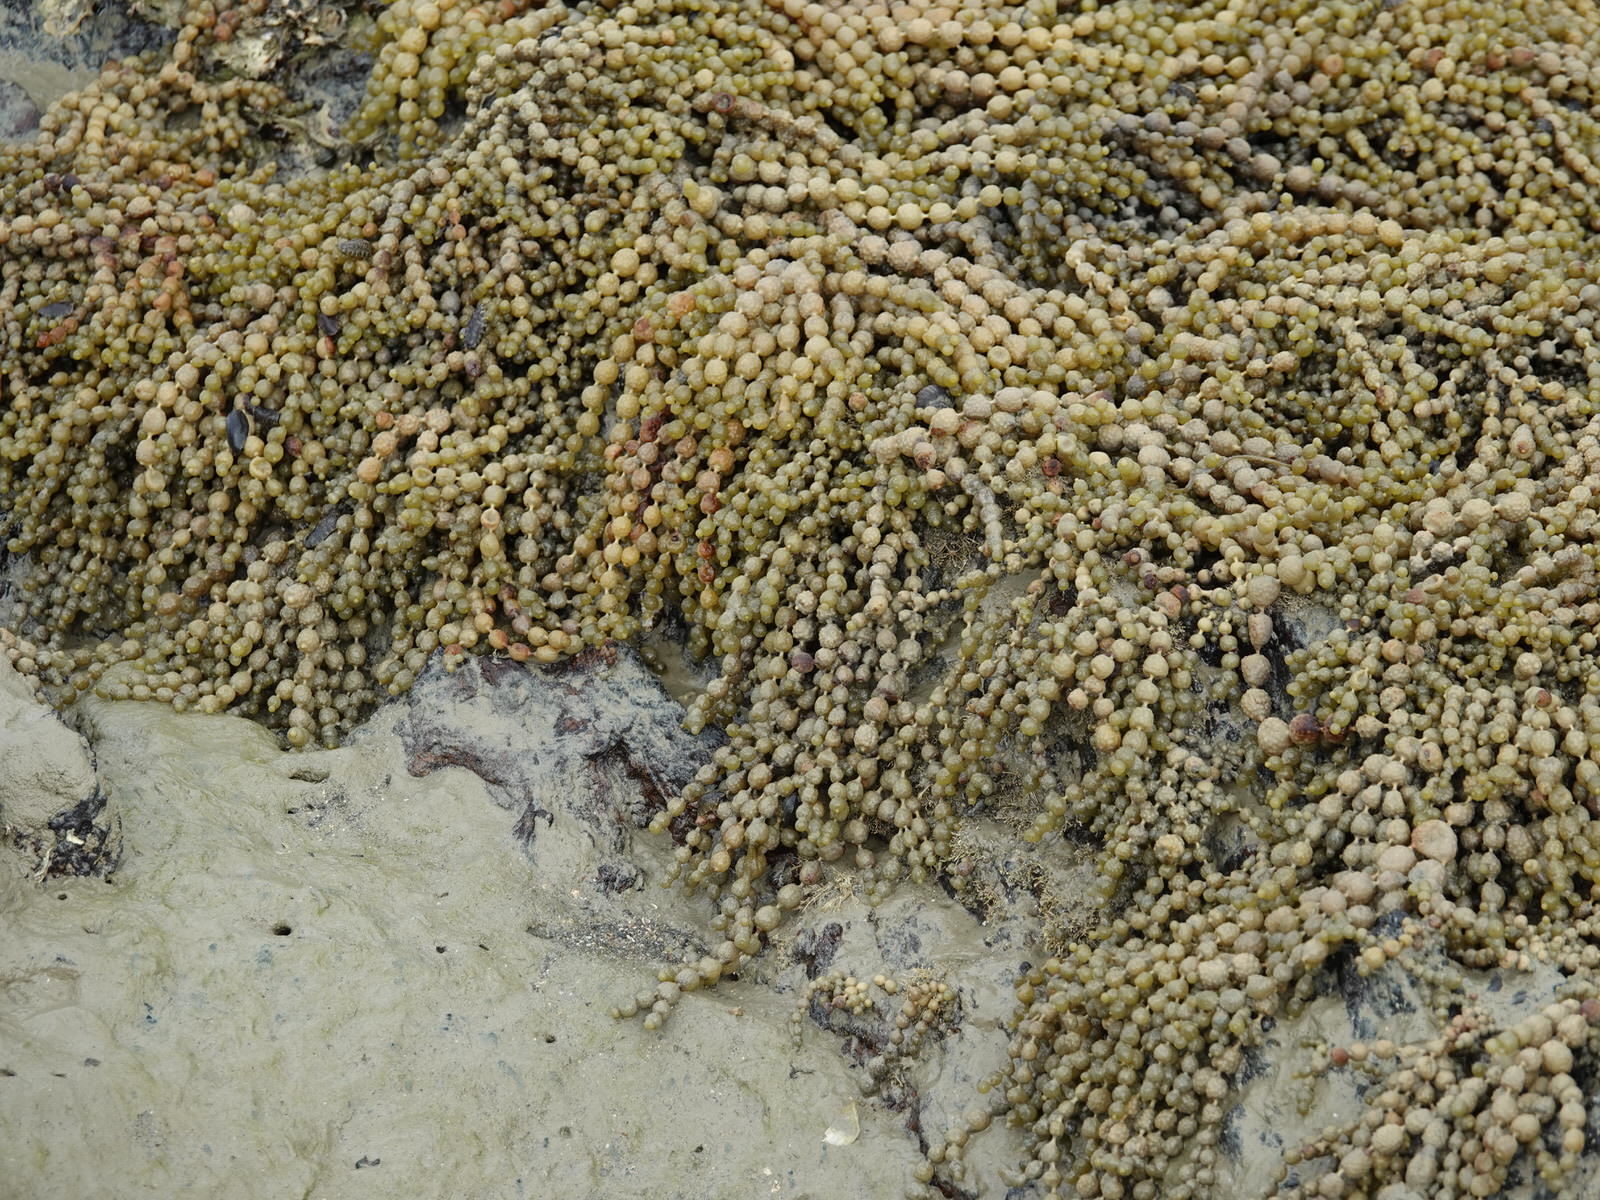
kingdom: Chromista
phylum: Ochrophyta
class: Phaeophyceae
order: Fucales
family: Hormosiraceae
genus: Hormosira
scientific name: Hormosira banksii
